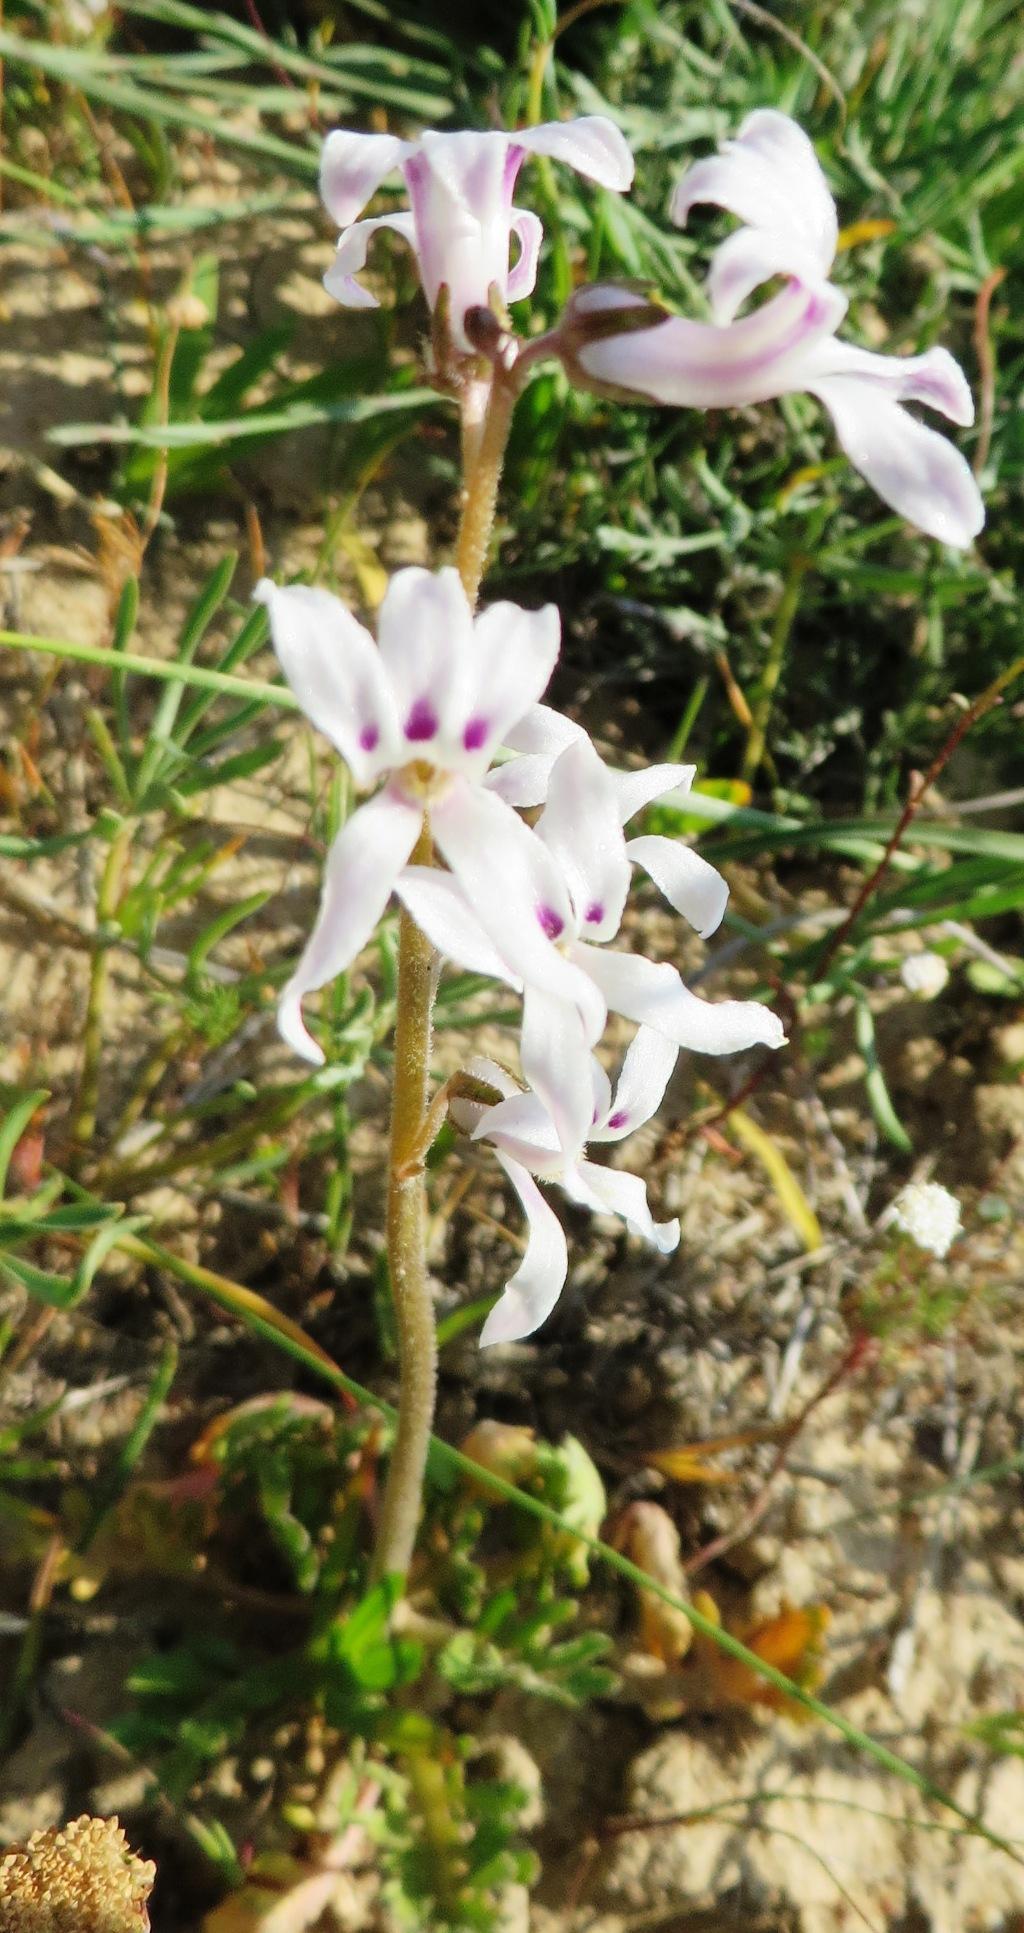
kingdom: Plantae
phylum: Tracheophyta
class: Magnoliopsida
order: Asterales
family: Campanulaceae
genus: Cyphia
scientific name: Cyphia incisa
